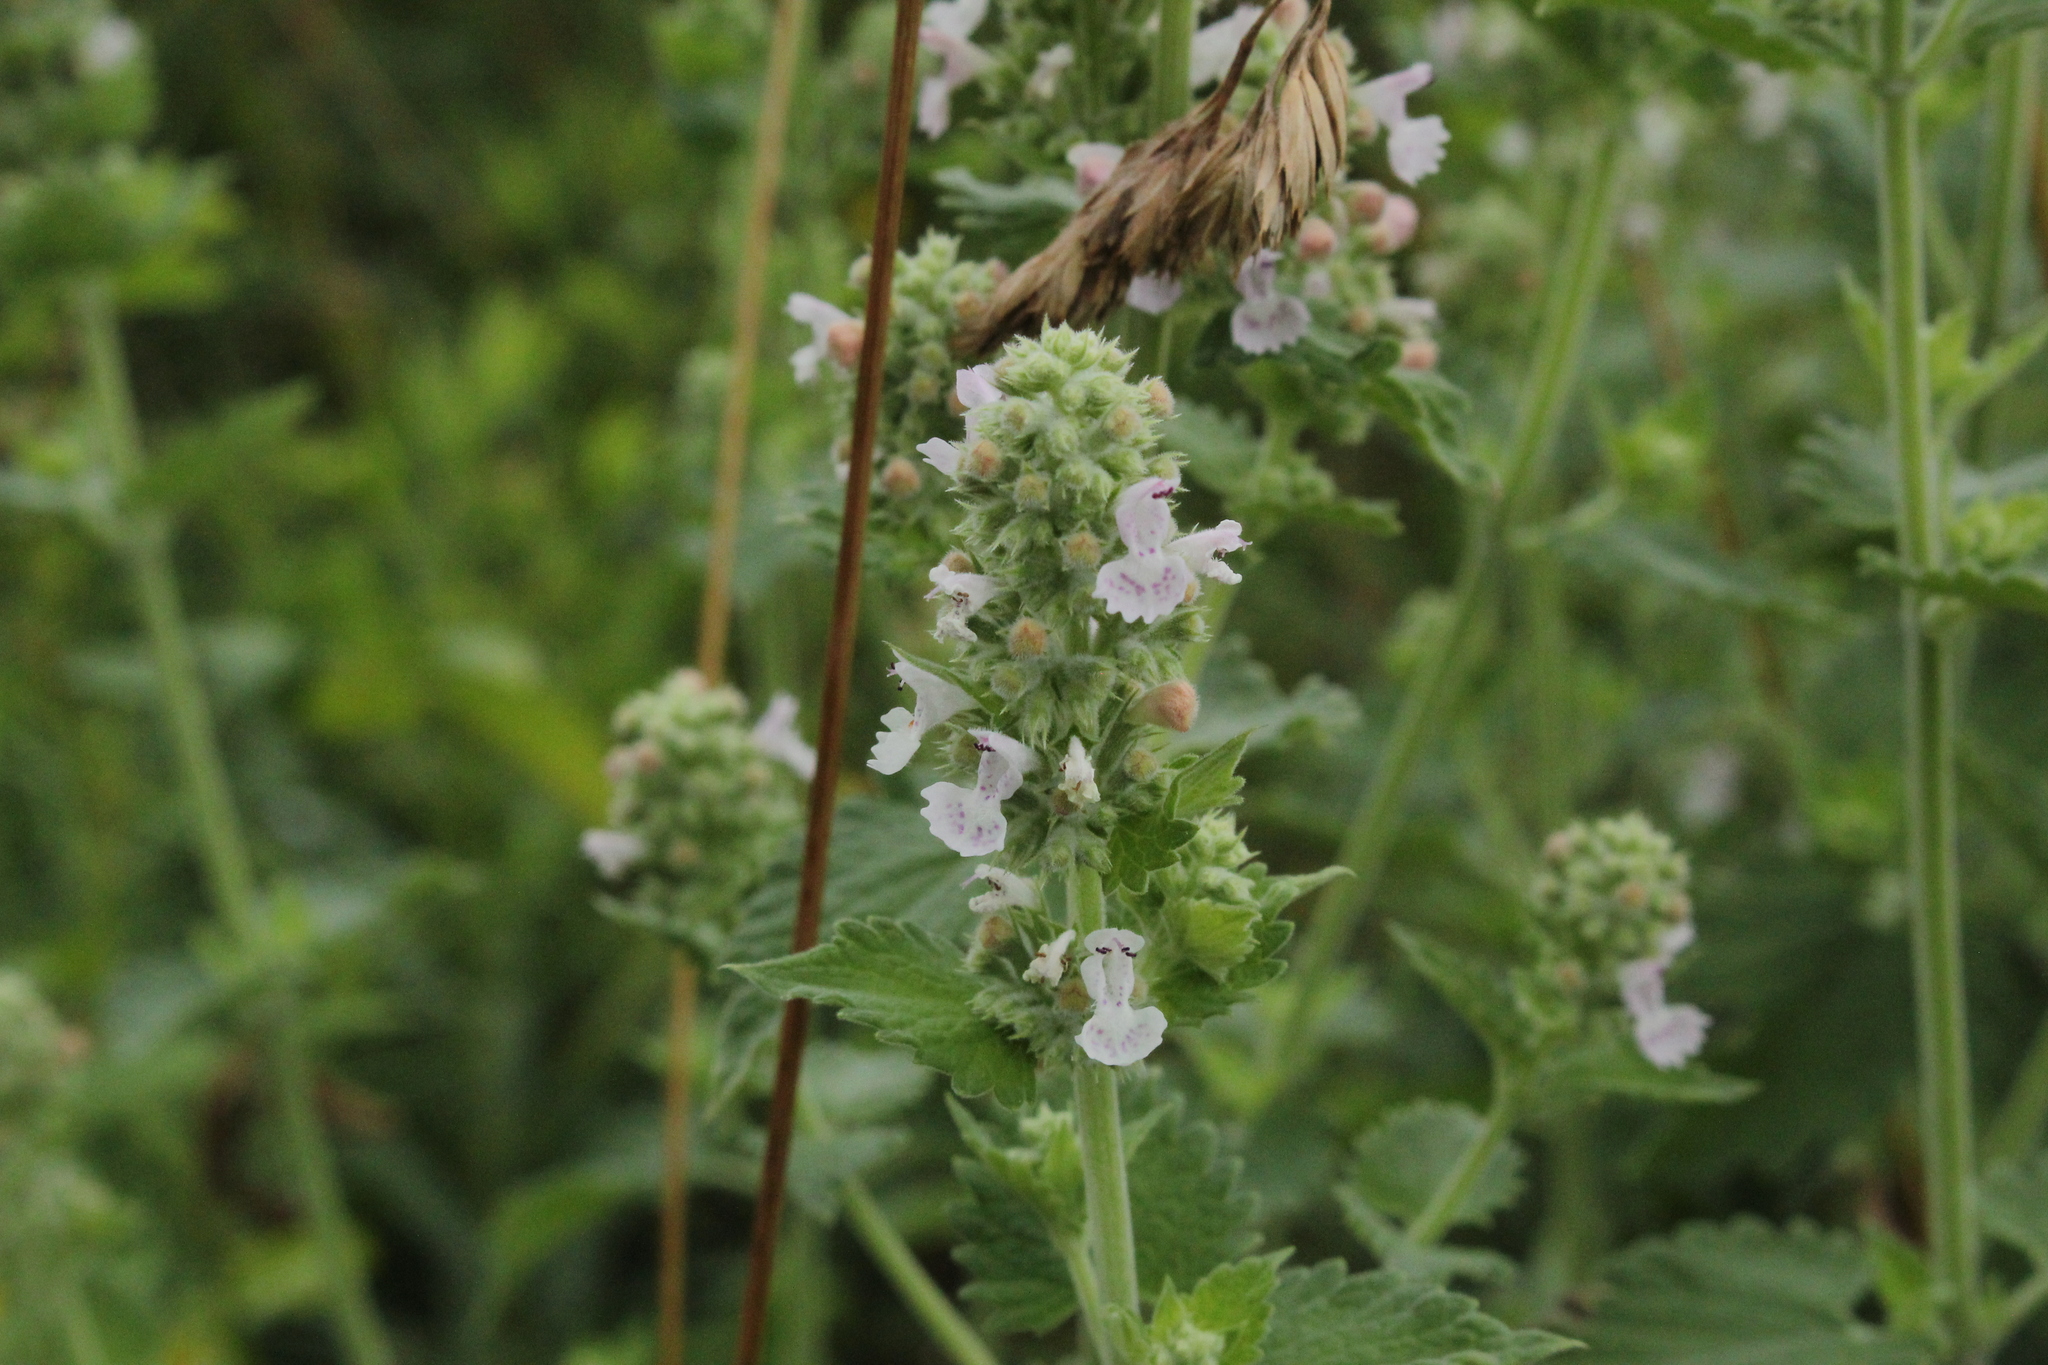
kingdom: Plantae
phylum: Tracheophyta
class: Magnoliopsida
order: Lamiales
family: Lamiaceae
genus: Nepeta
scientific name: Nepeta cataria
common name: Catnip
